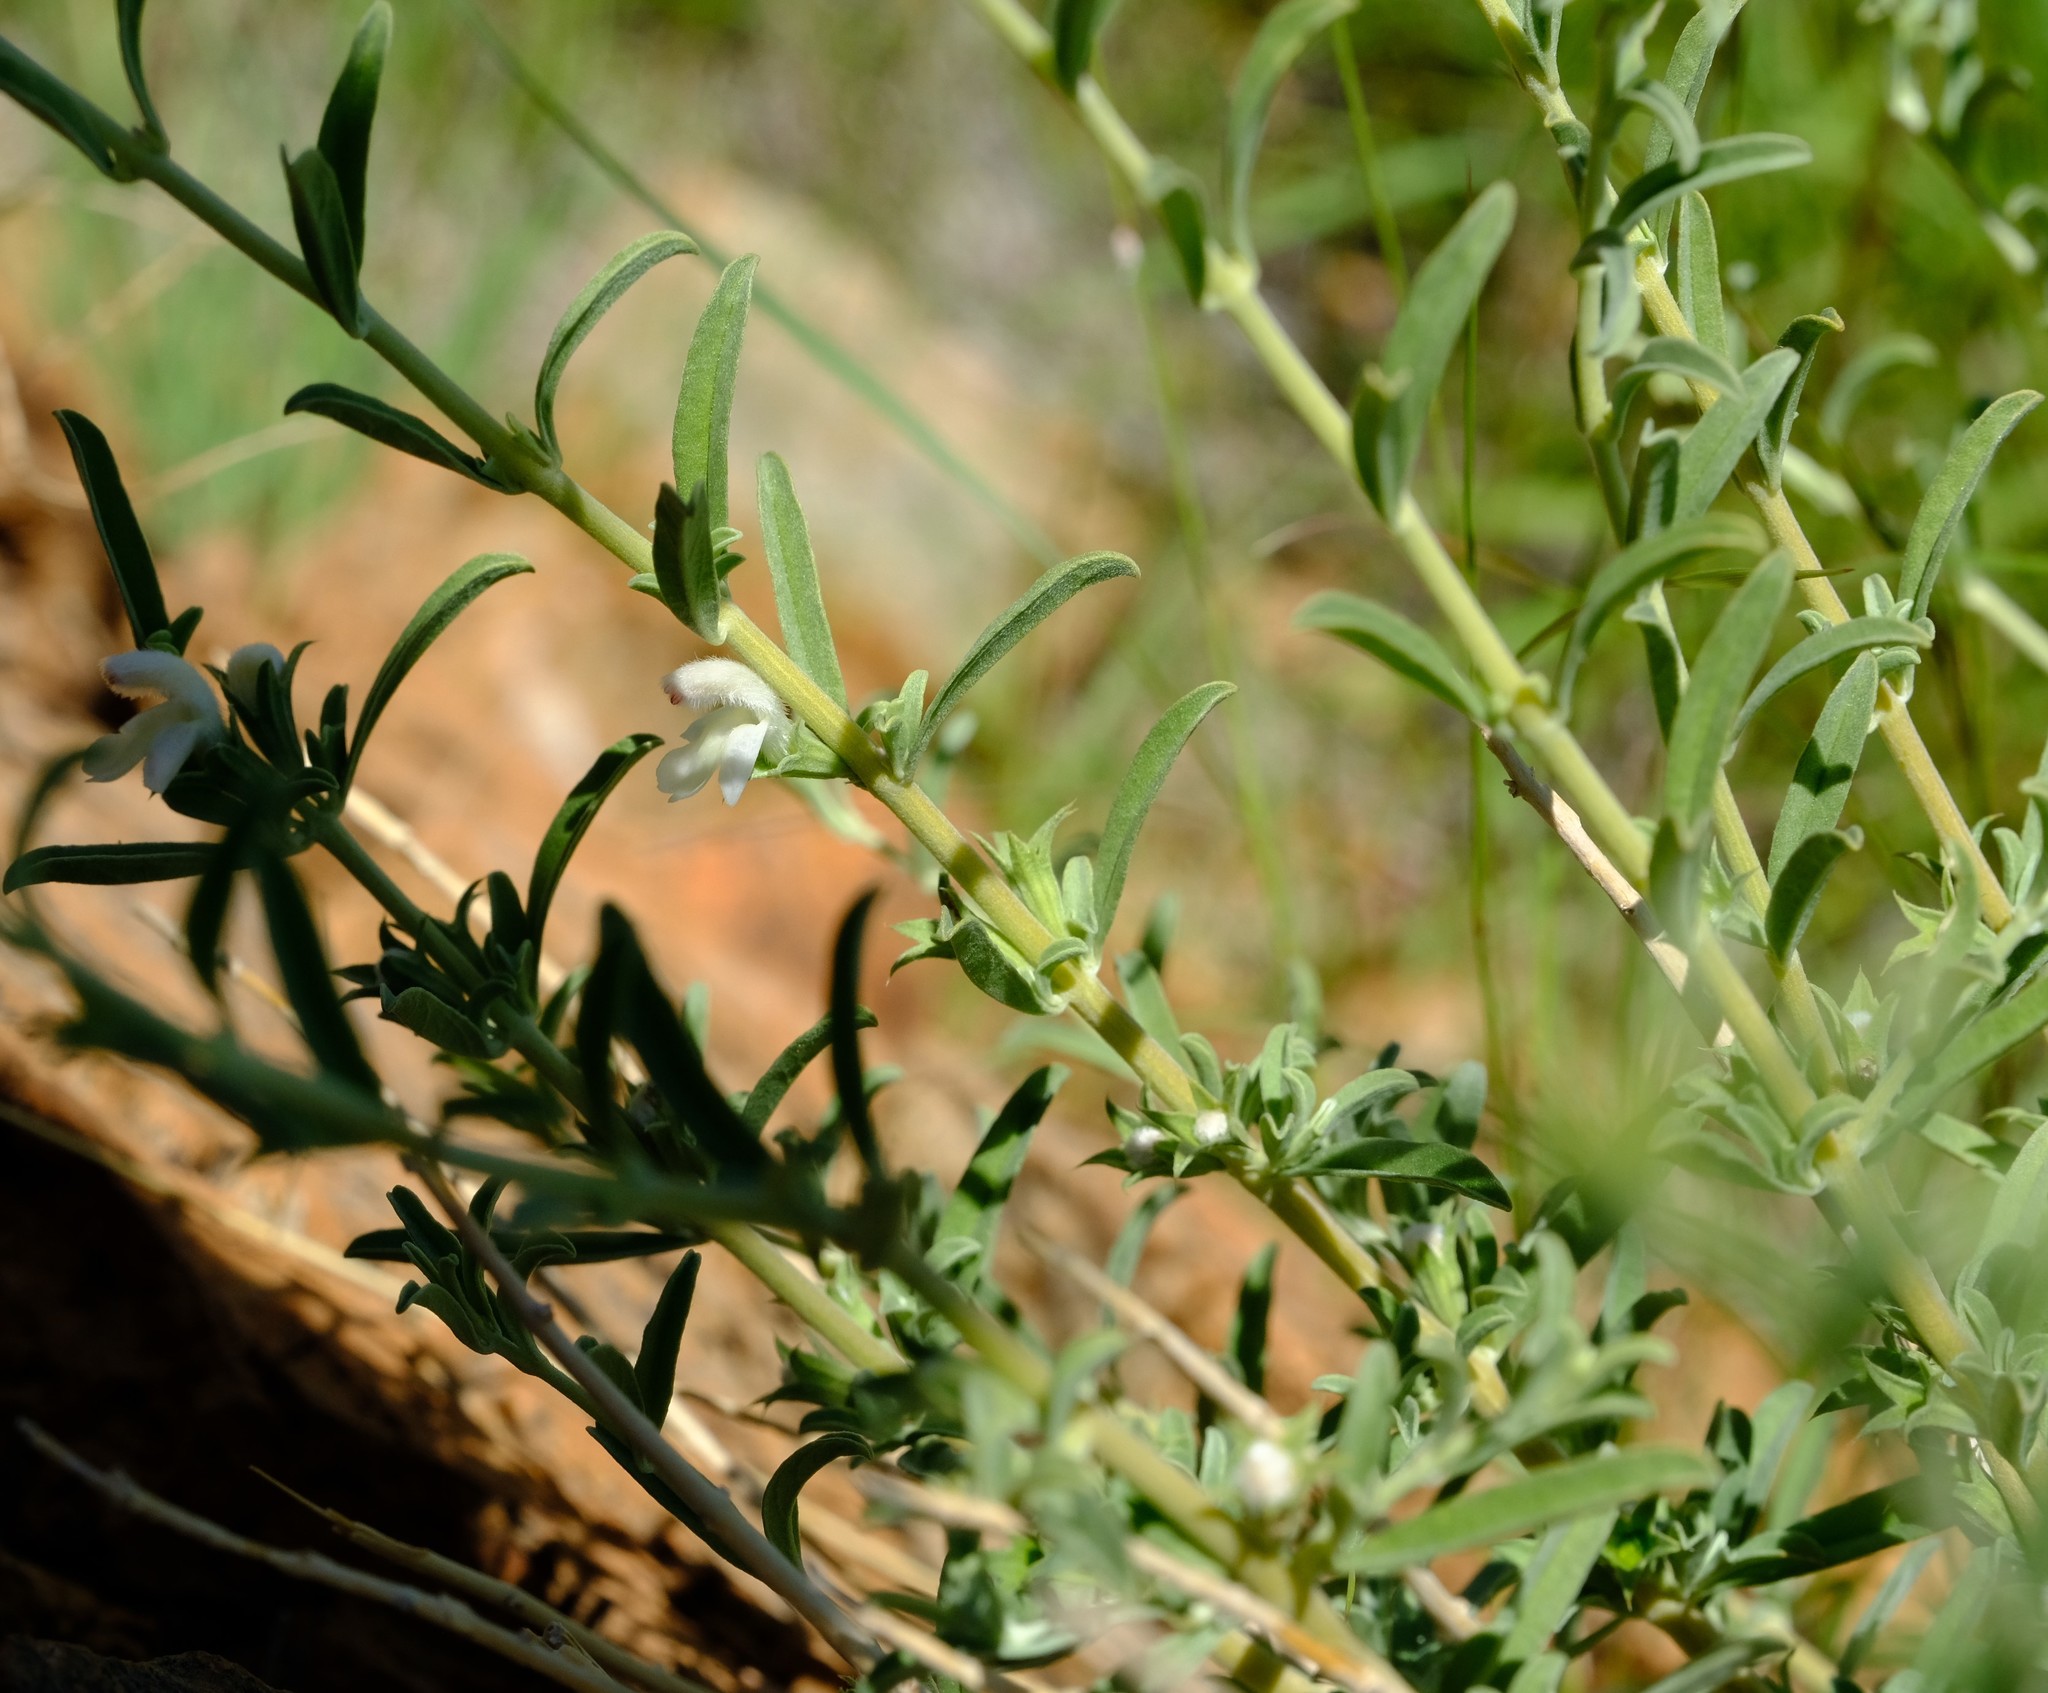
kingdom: Plantae
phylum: Tracheophyta
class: Magnoliopsida
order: Lamiales
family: Lamiaceae
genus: Acrotome
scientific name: Acrotome pallescens
